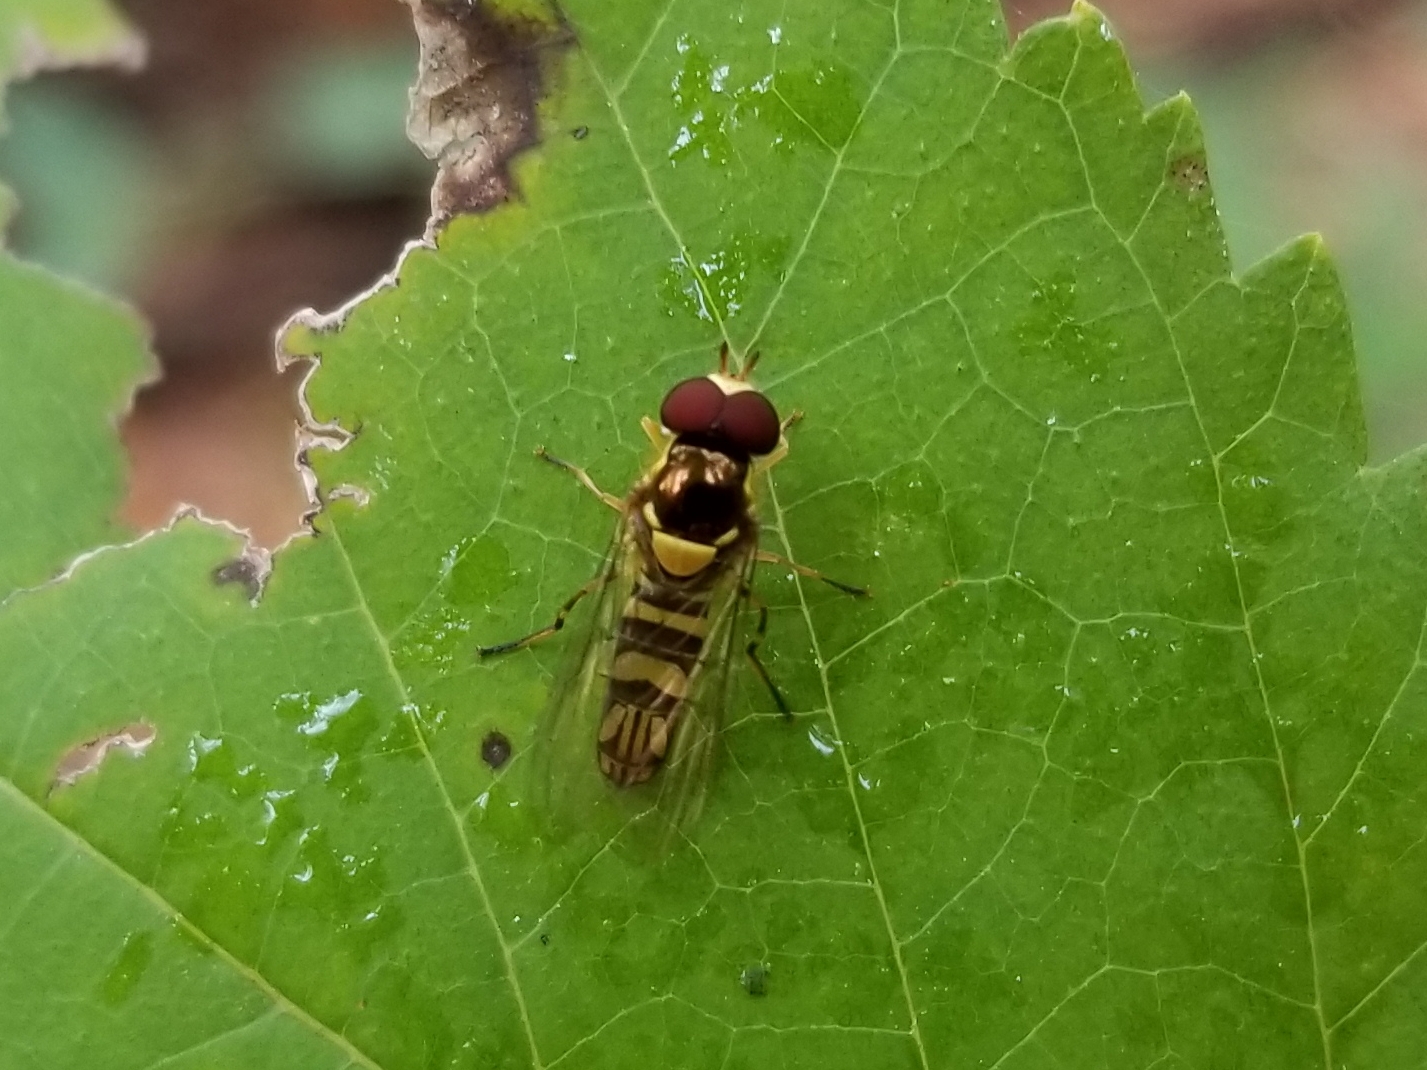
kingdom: Animalia
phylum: Arthropoda
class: Insecta
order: Diptera
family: Syrphidae
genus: Allograpta
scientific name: Allograpta obliqua
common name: Common oblique syrphid
